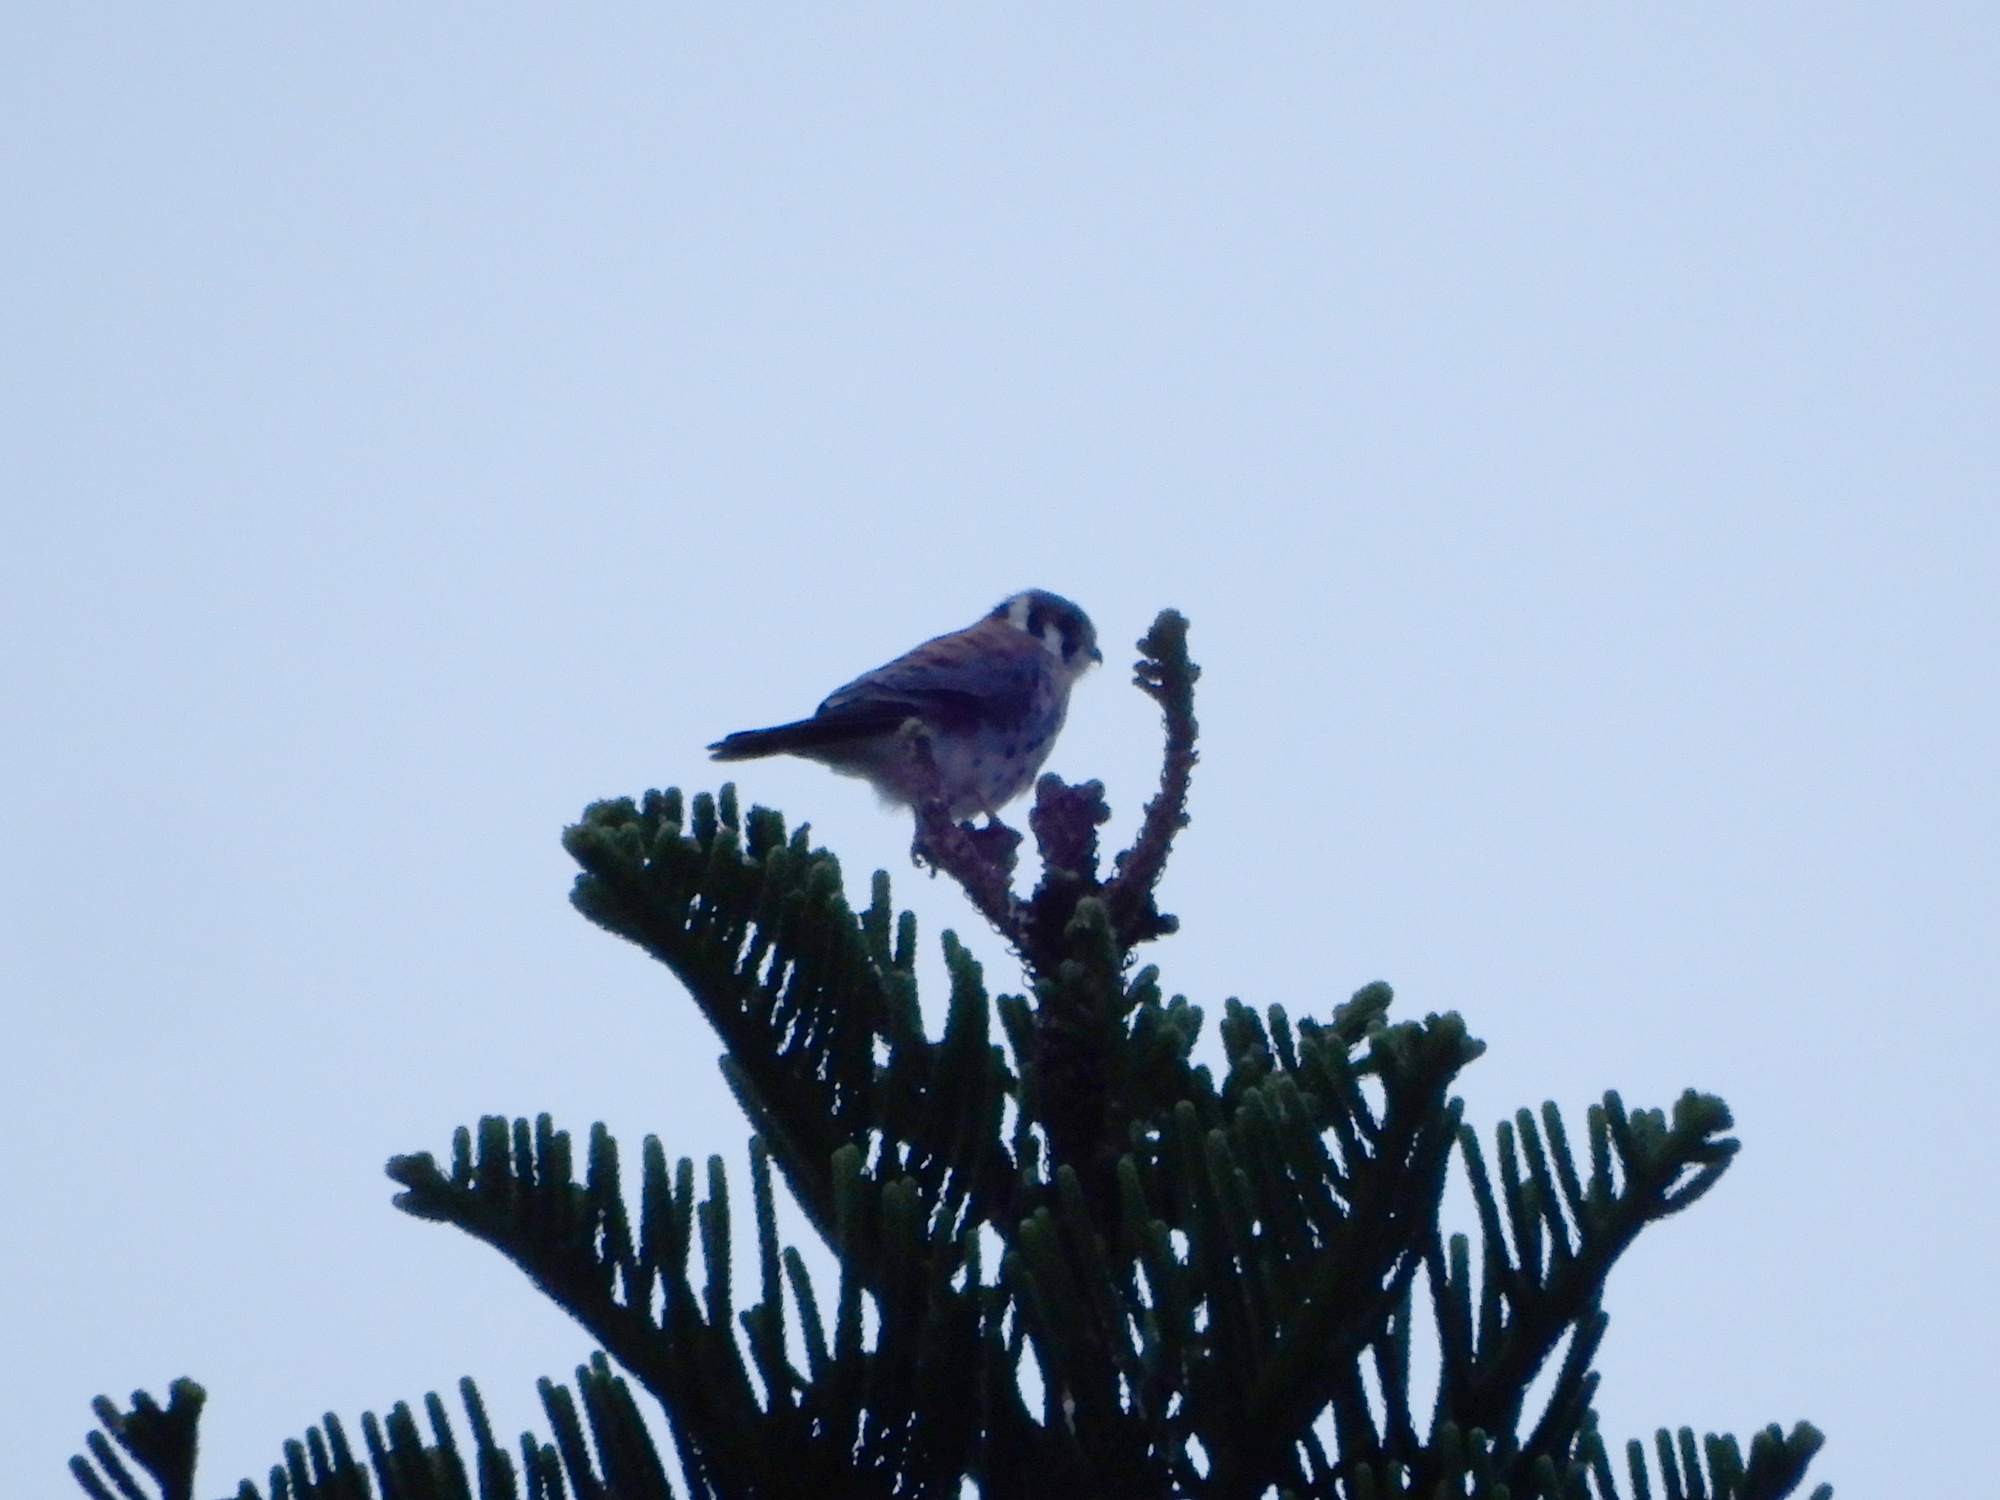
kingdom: Animalia
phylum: Chordata
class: Aves
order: Falconiformes
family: Falconidae
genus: Falco
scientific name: Falco sparverius
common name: American kestrel
